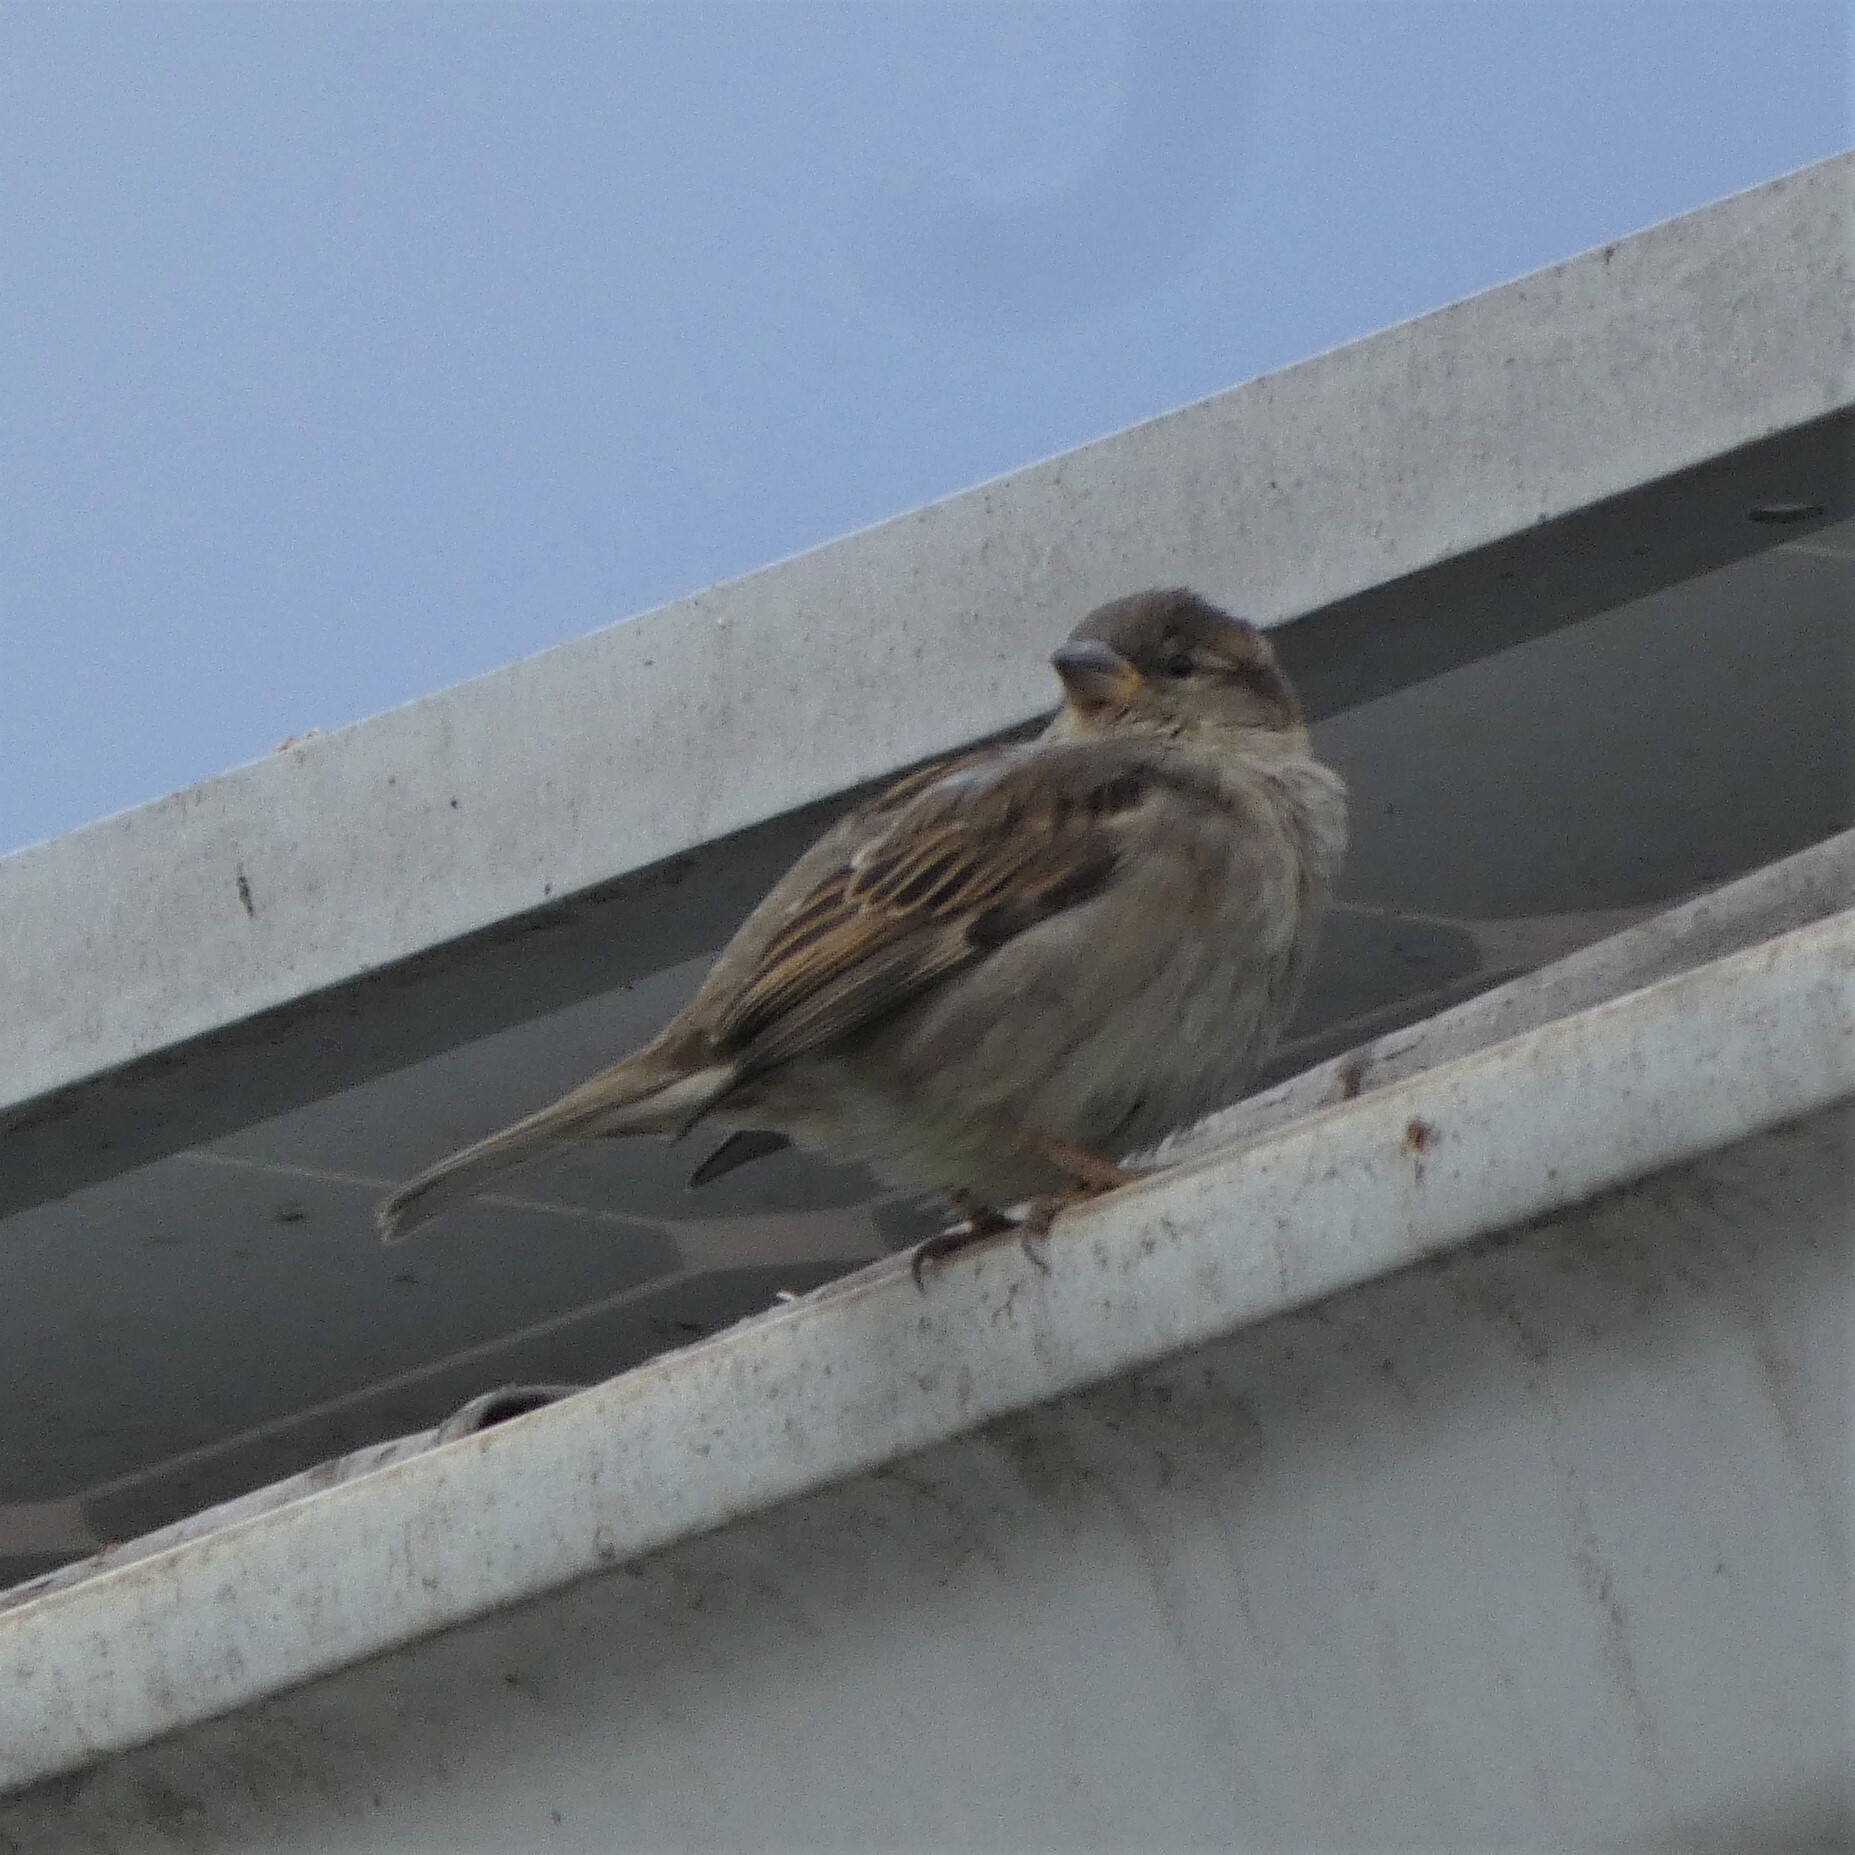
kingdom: Animalia
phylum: Chordata
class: Aves
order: Passeriformes
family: Passeridae
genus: Passer
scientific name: Passer domesticus
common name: House sparrow
